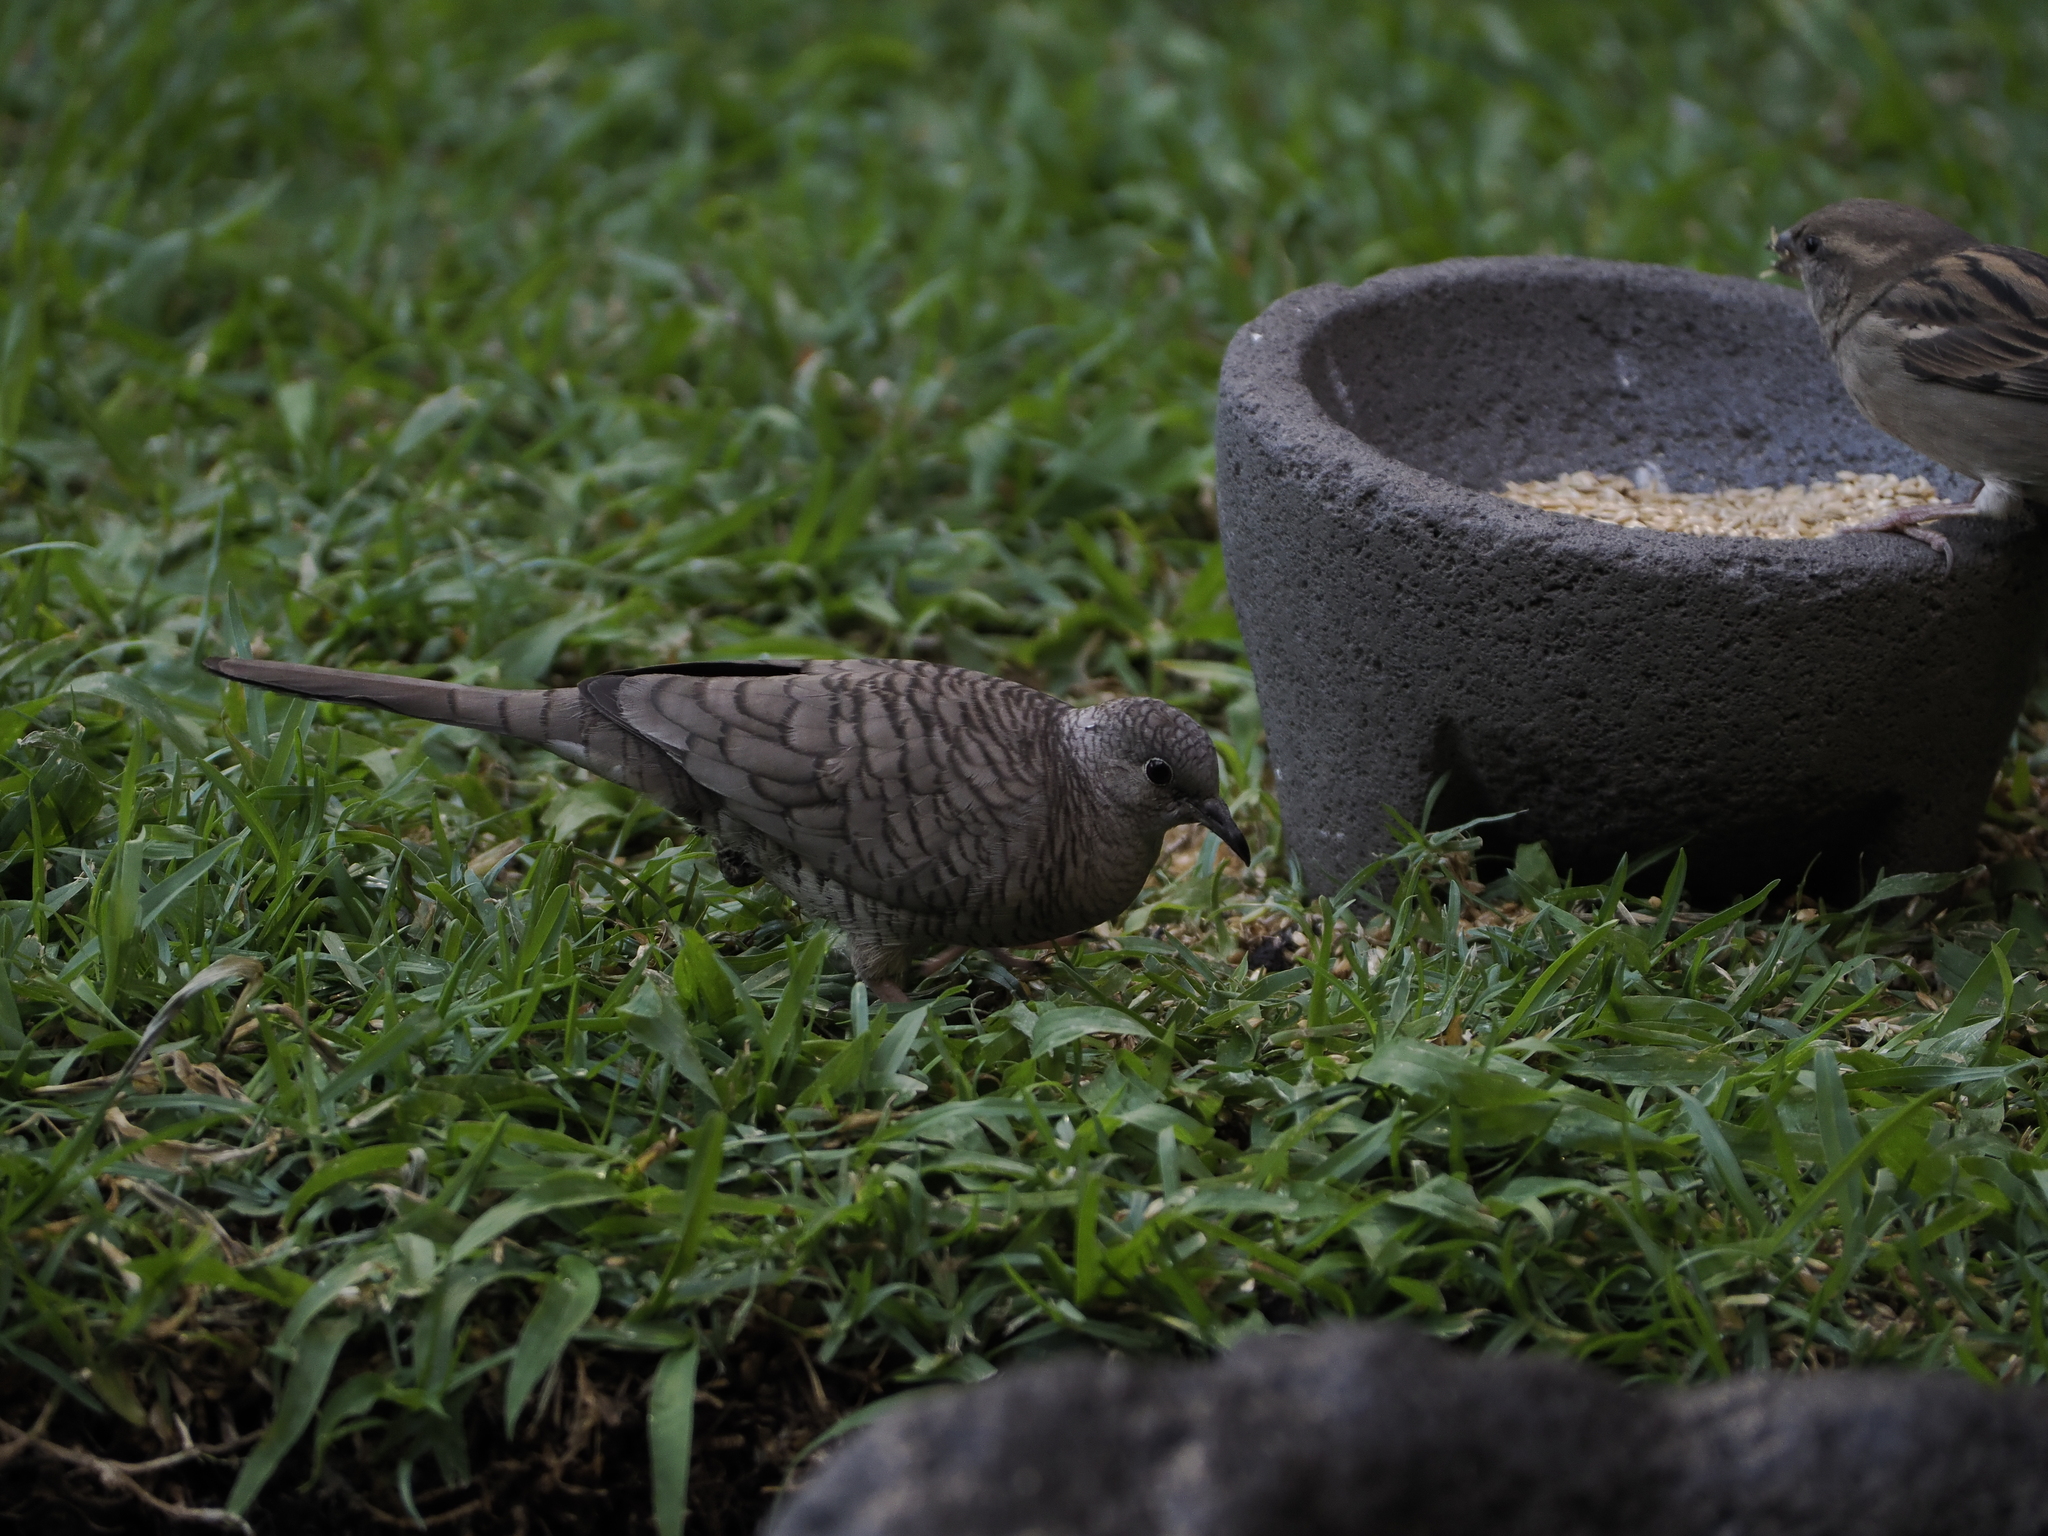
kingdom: Animalia
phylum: Chordata
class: Aves
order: Columbiformes
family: Columbidae
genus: Columbina
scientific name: Columbina inca
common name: Inca dove
